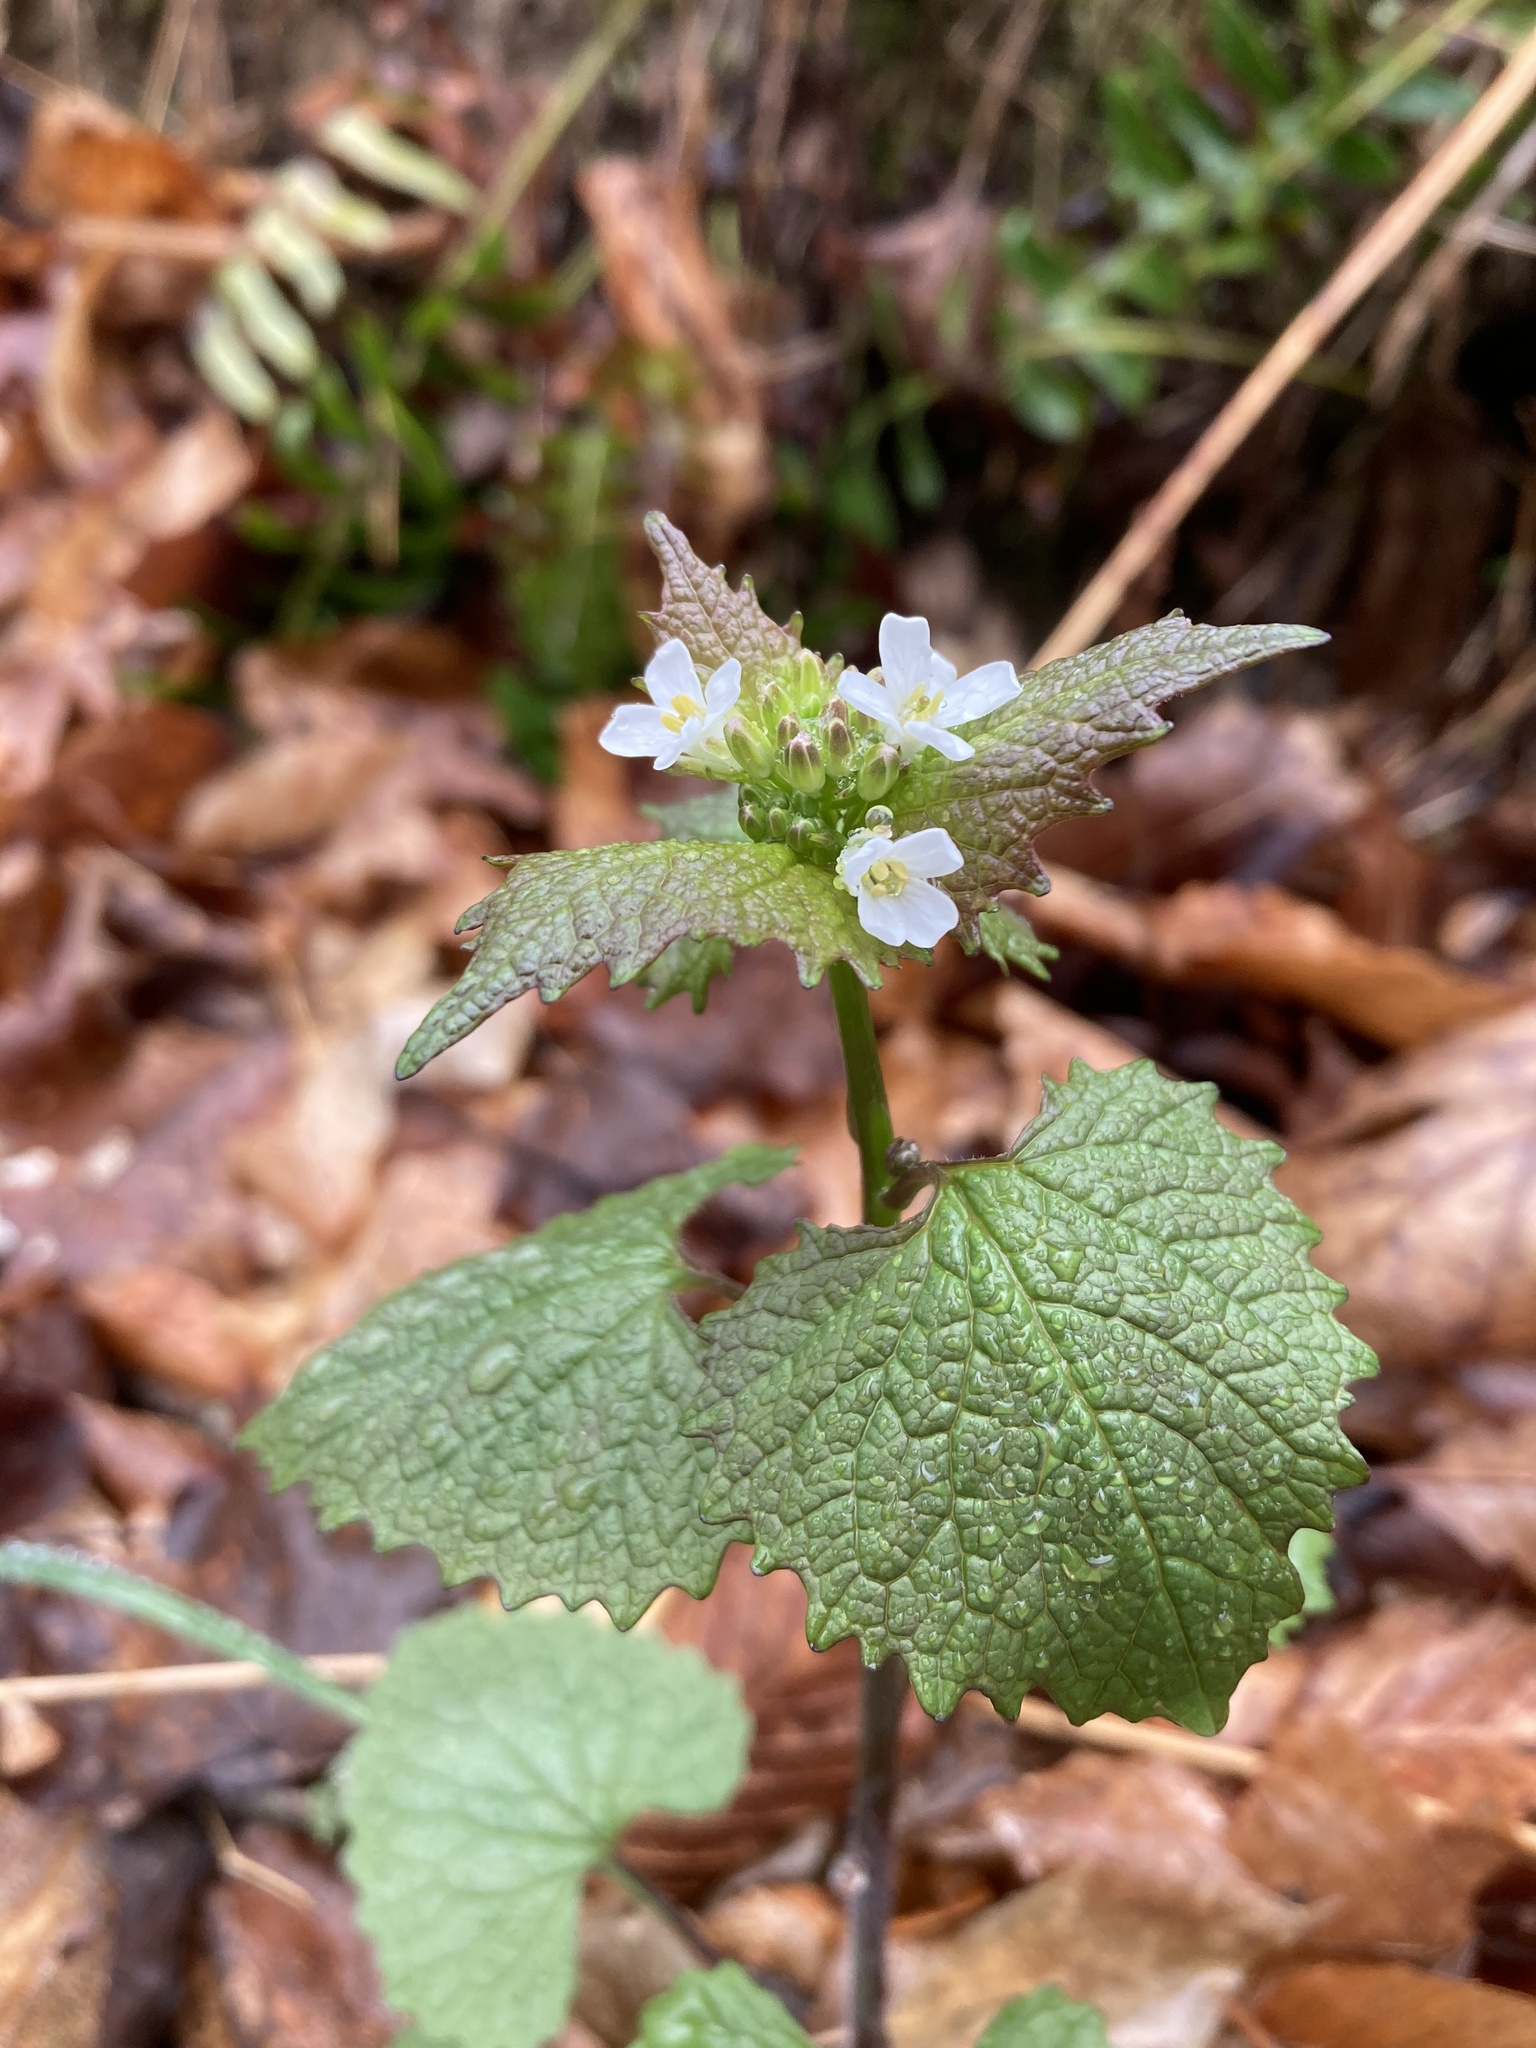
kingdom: Plantae
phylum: Tracheophyta
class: Magnoliopsida
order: Brassicales
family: Brassicaceae
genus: Alliaria
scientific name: Alliaria petiolata
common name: Garlic mustard
